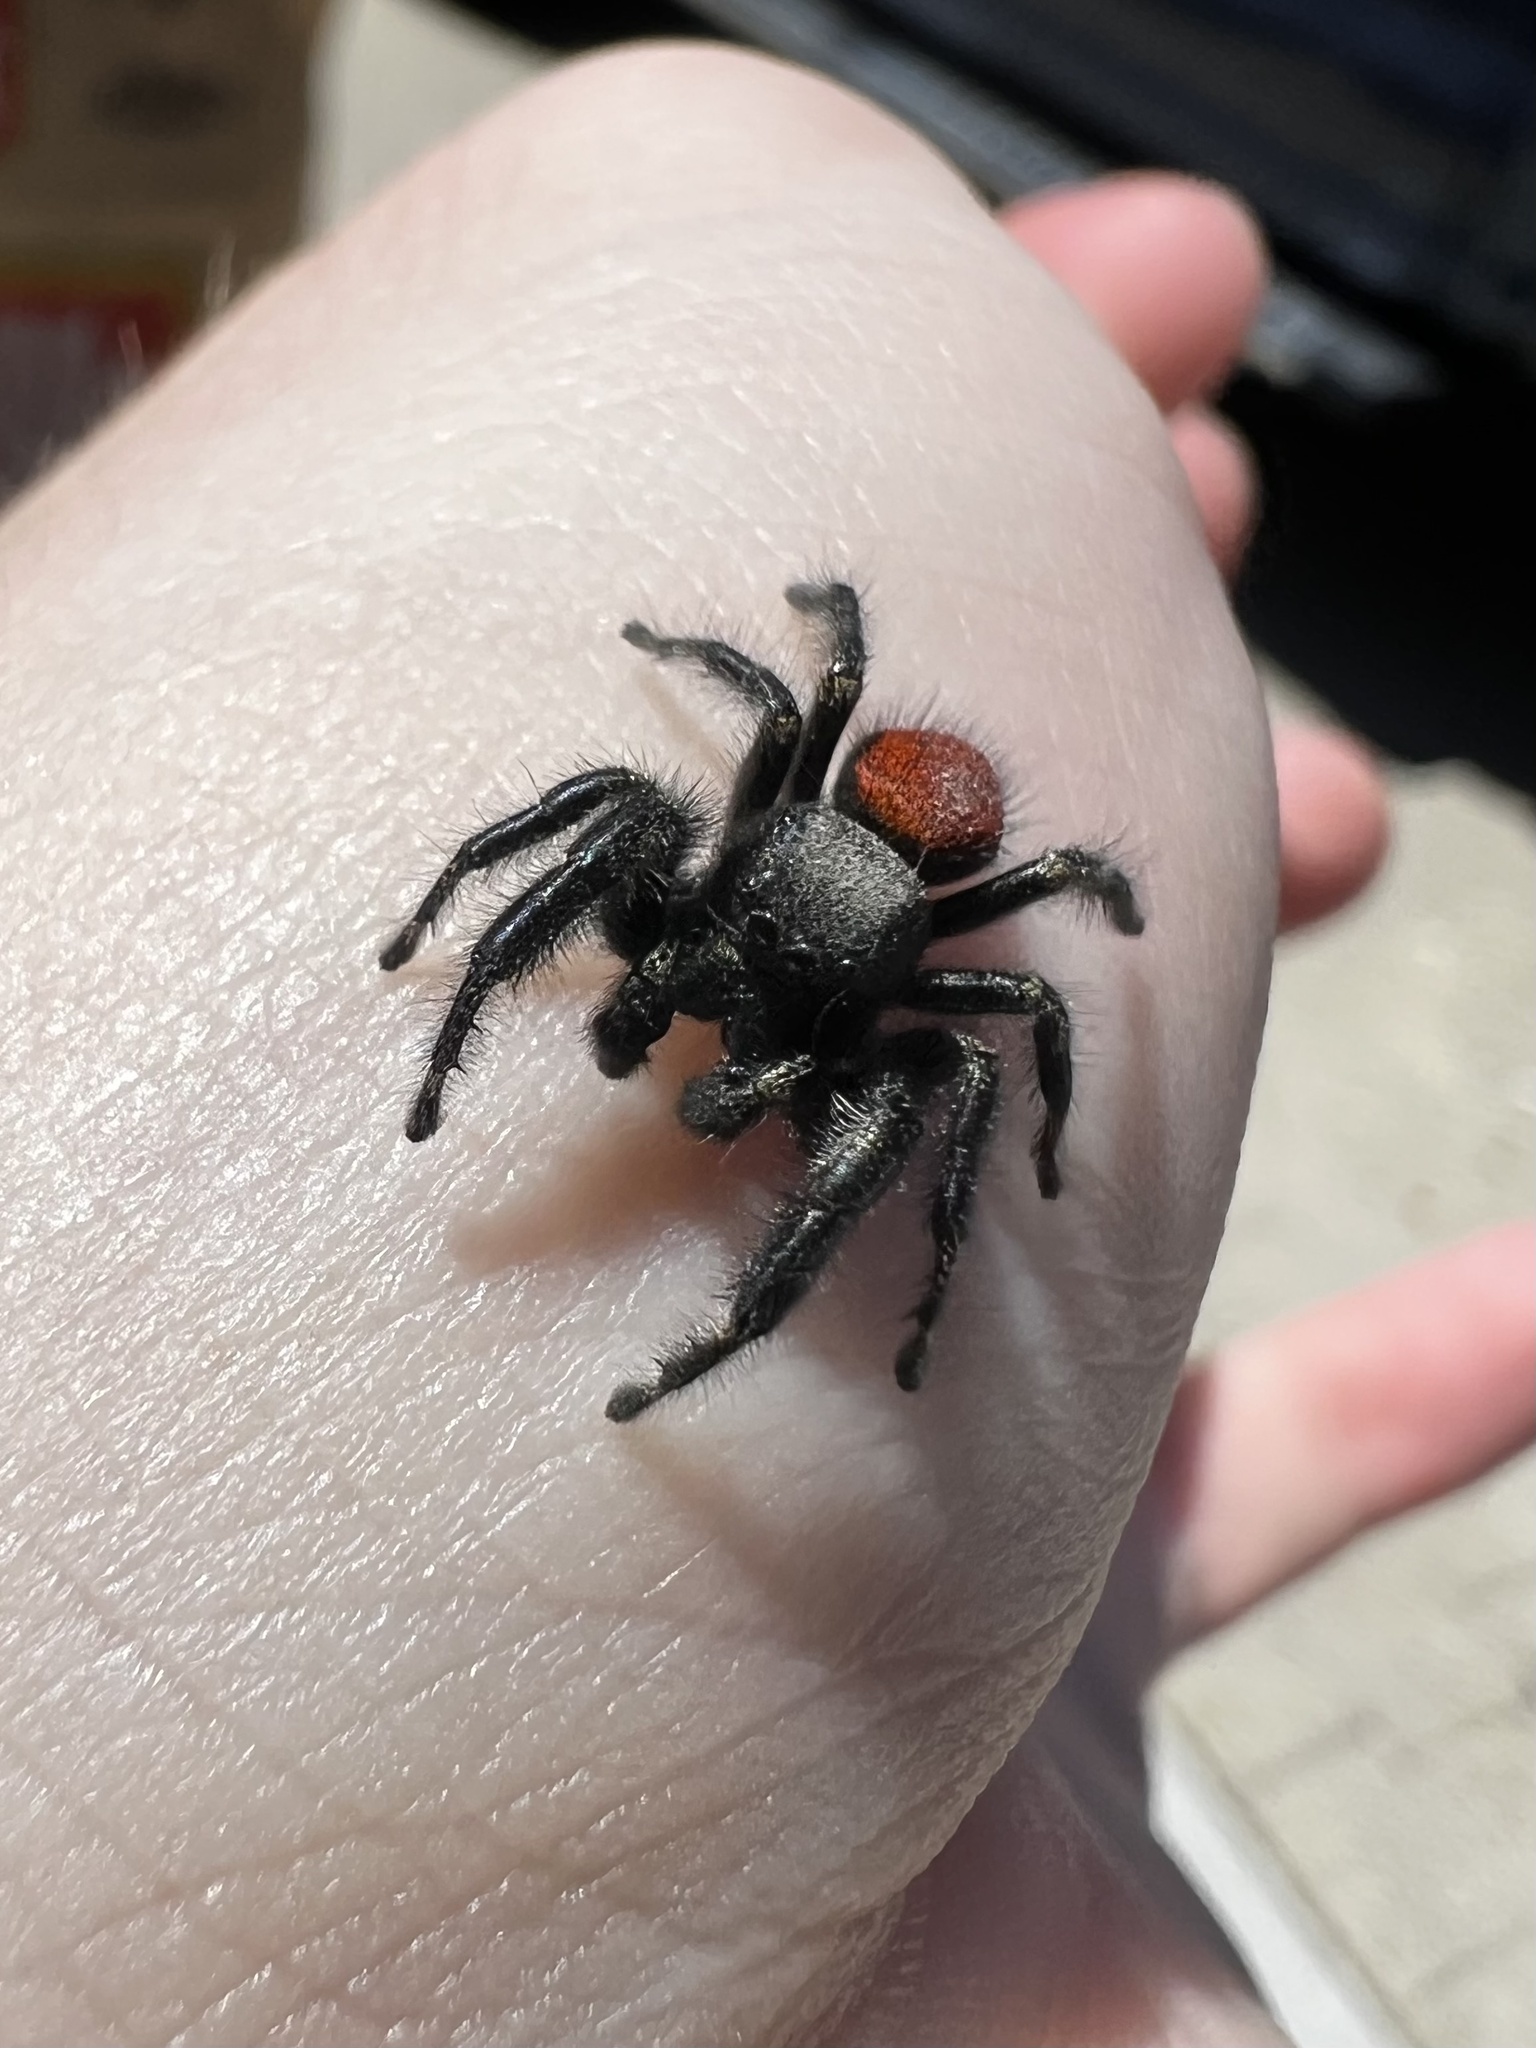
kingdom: Animalia
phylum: Arthropoda
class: Arachnida
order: Araneae
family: Salticidae
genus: Phidippus
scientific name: Phidippus johnsoni
